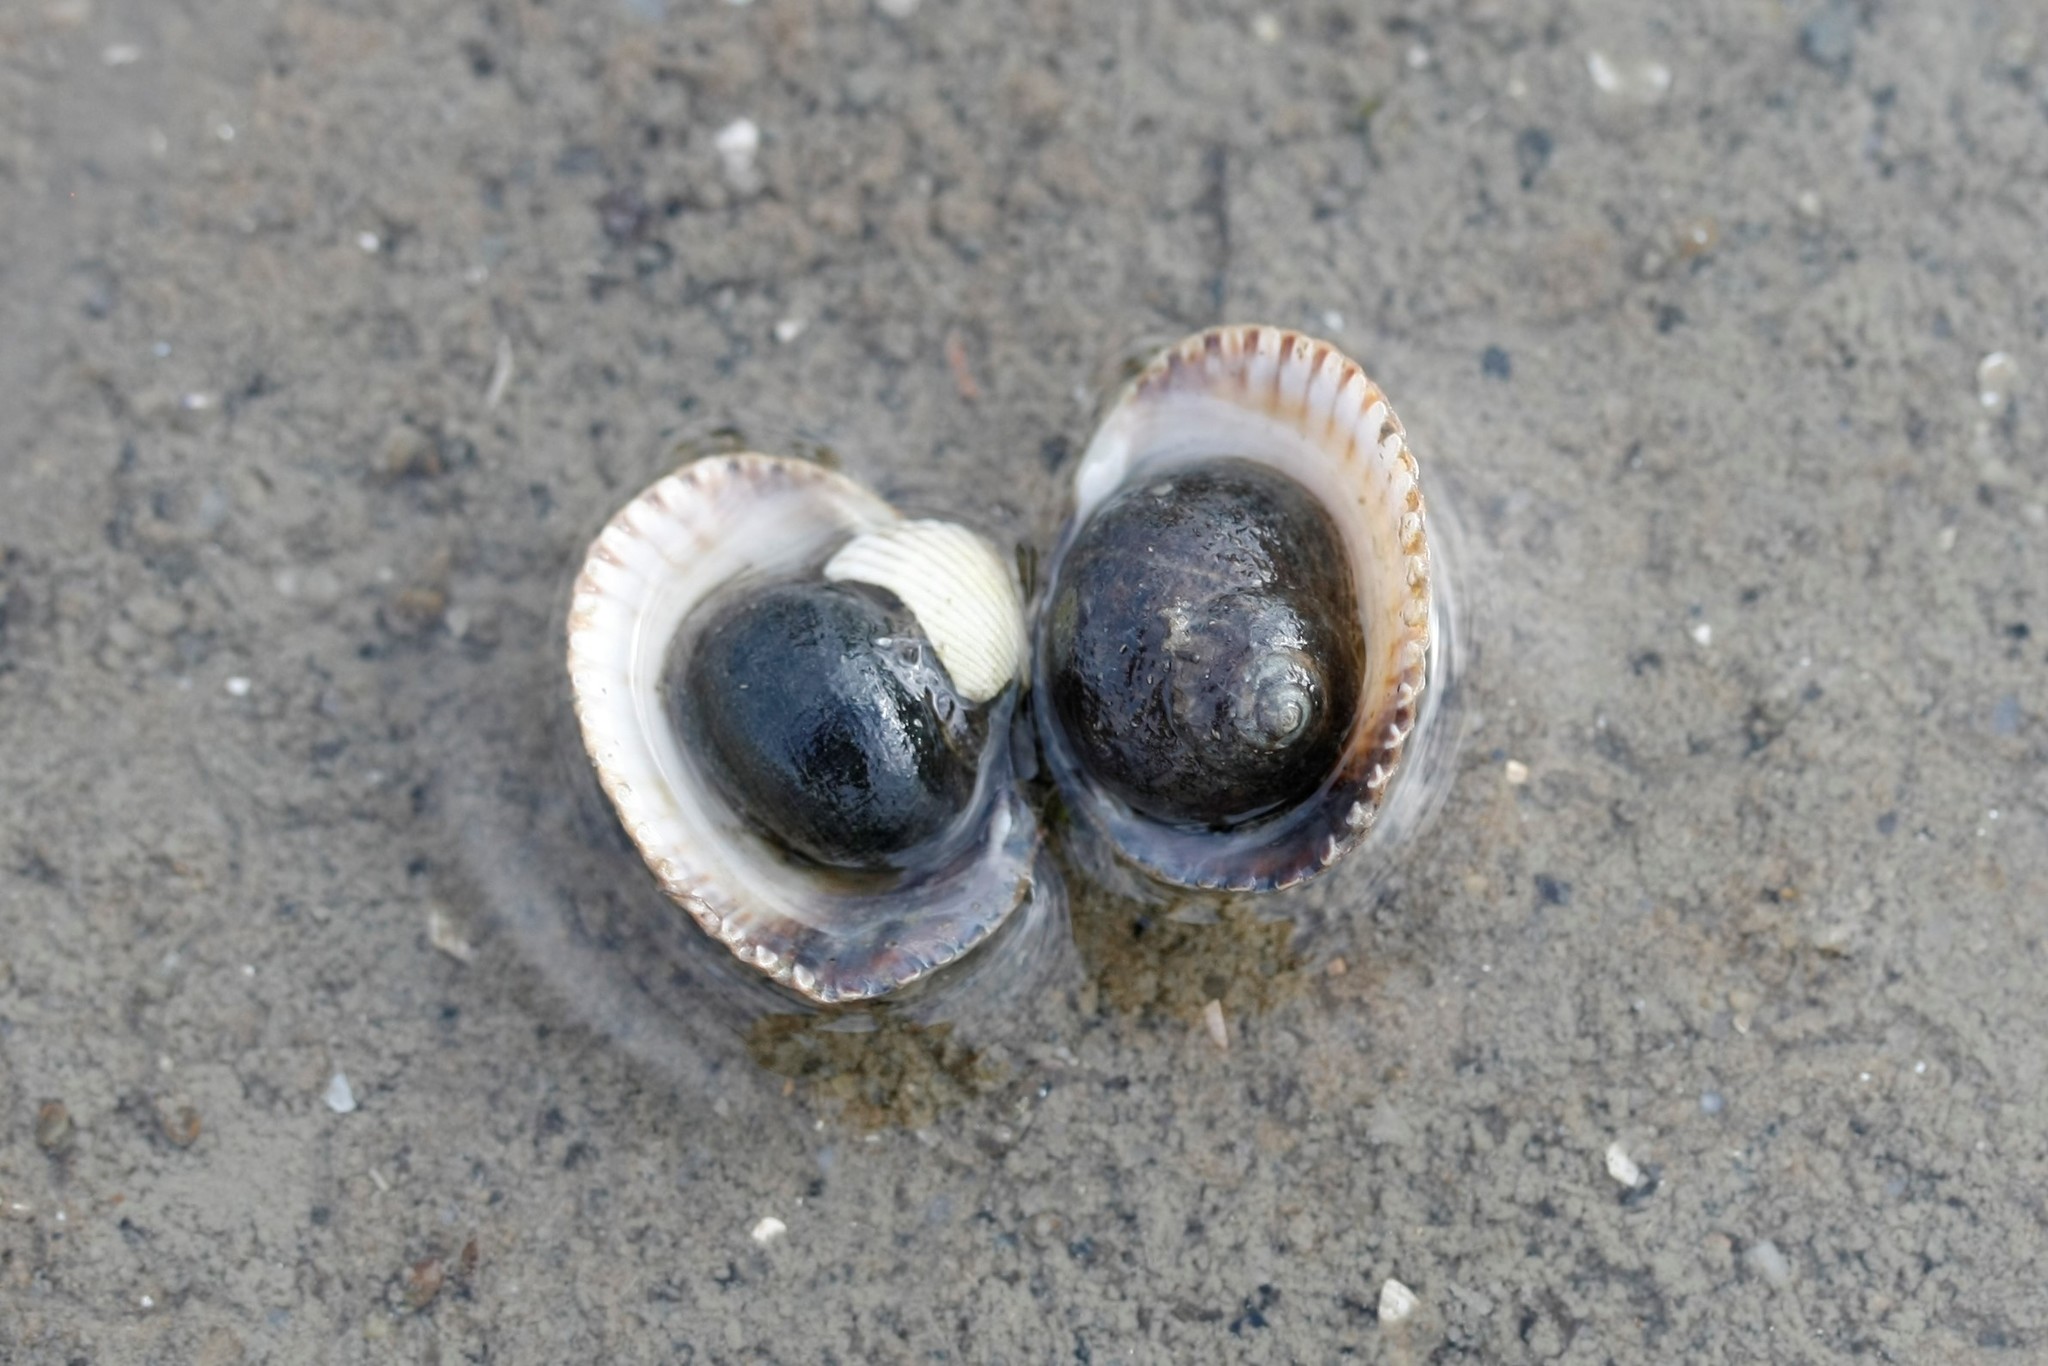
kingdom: Animalia
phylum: Mollusca
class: Gastropoda
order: Littorinimorpha
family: Littorinidae
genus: Littorina
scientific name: Littorina littorea
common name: Common periwinkle
